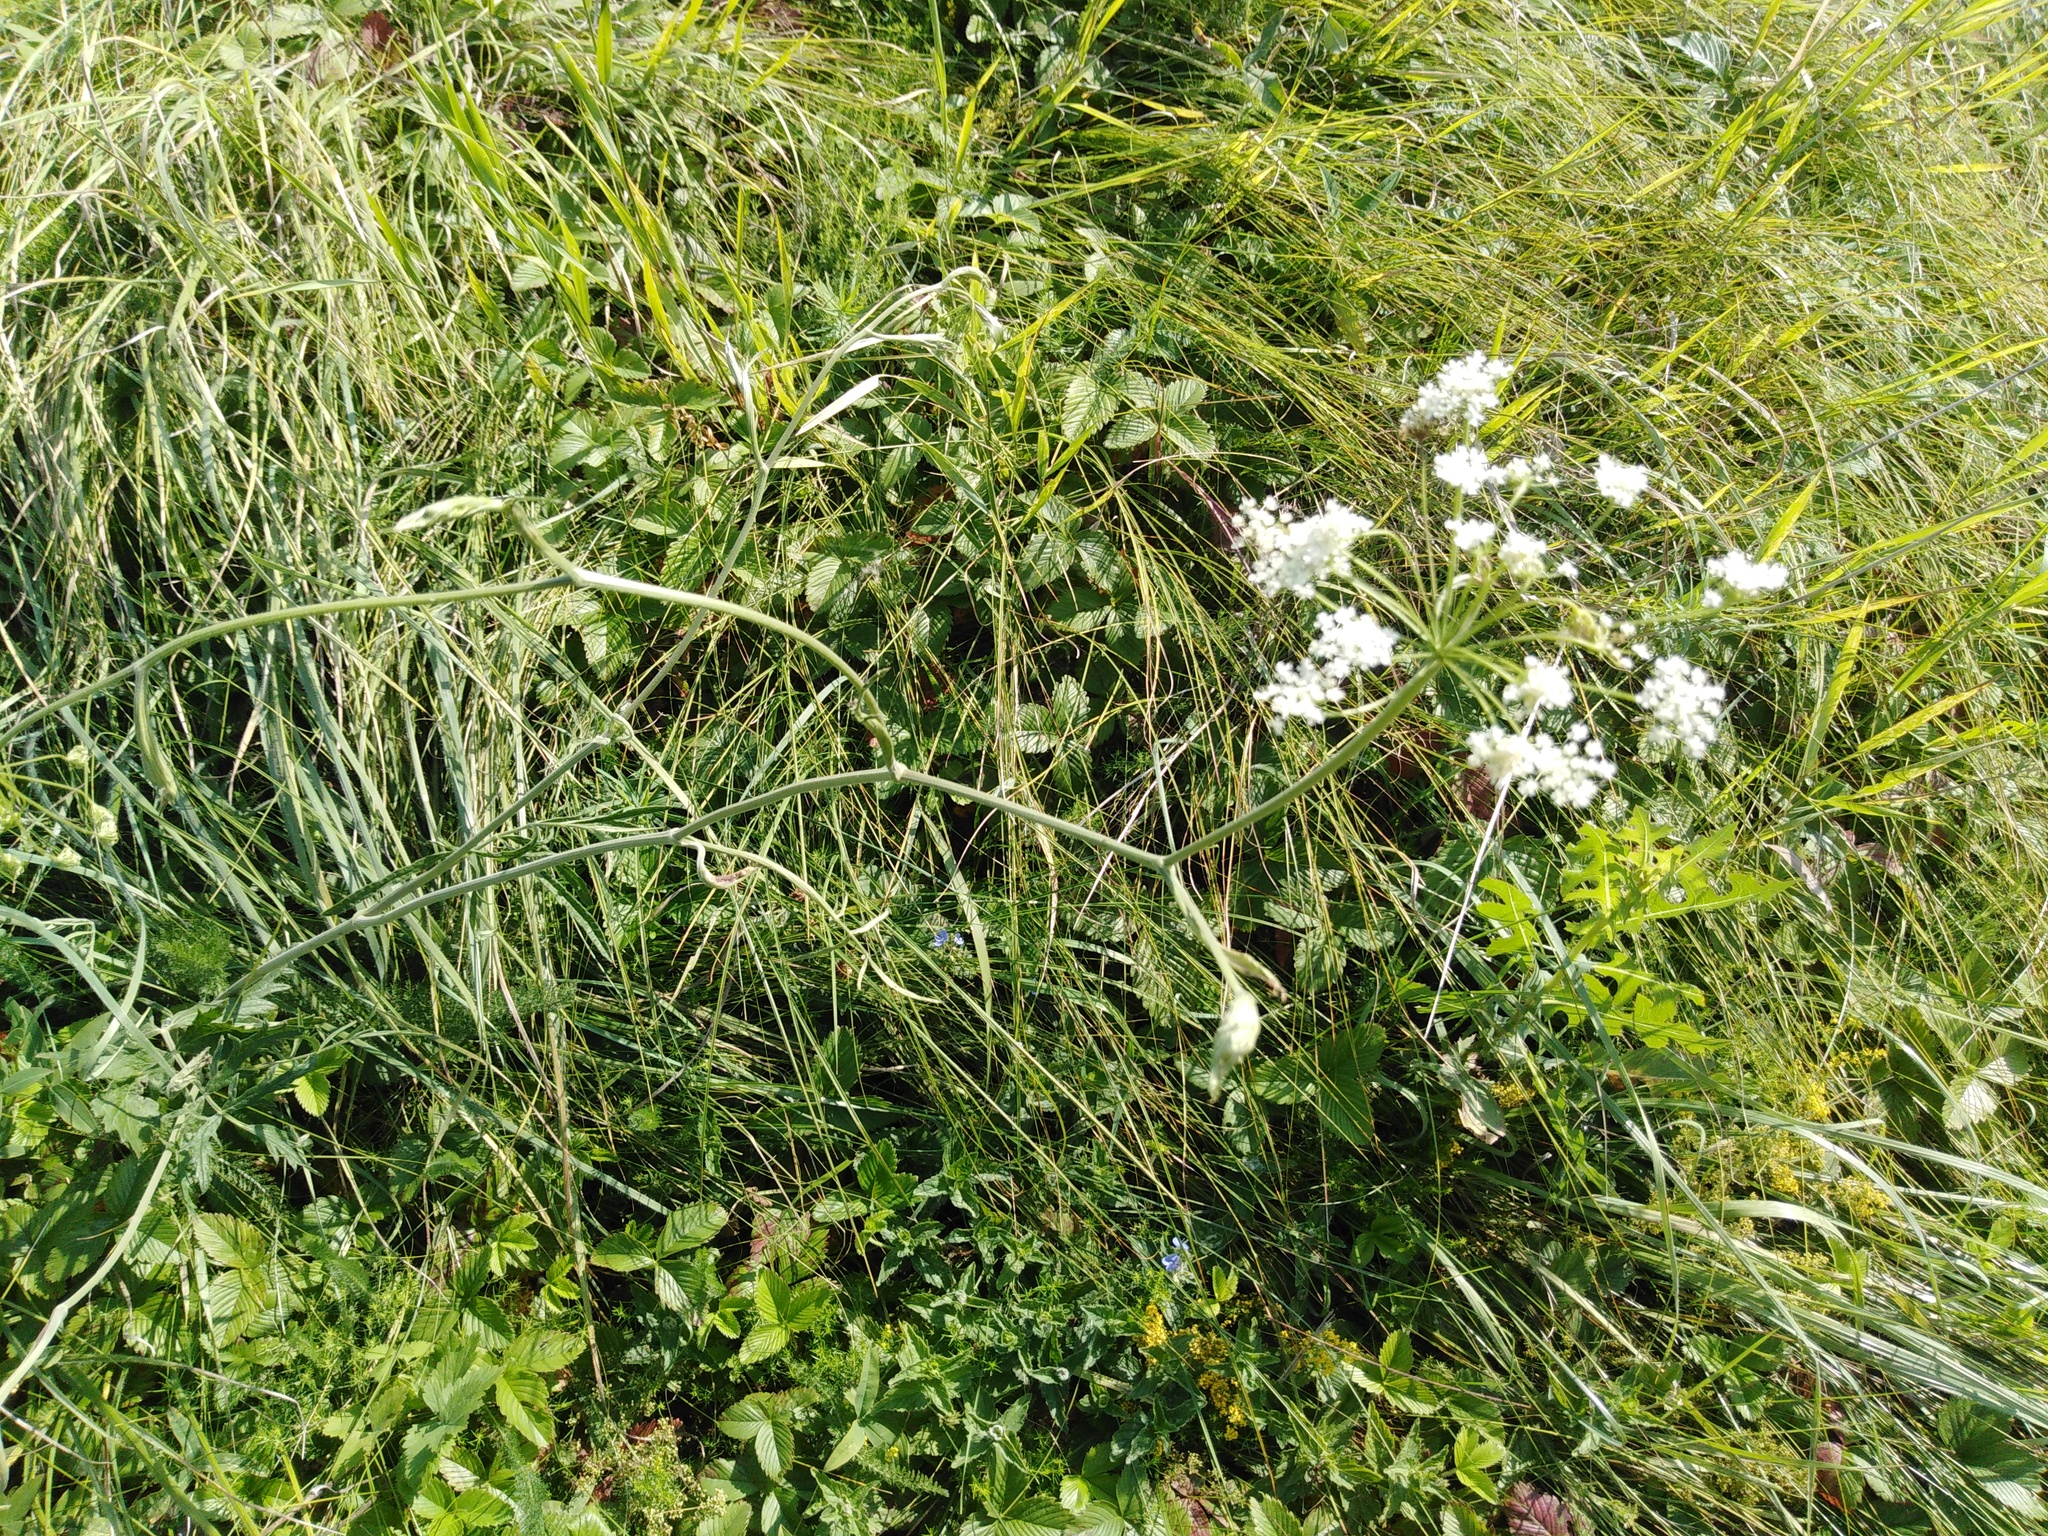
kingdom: Plantae
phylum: Tracheophyta
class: Magnoliopsida
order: Apiales
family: Apiaceae
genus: Seseli
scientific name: Seseli libanotis
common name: Mooncarrot
